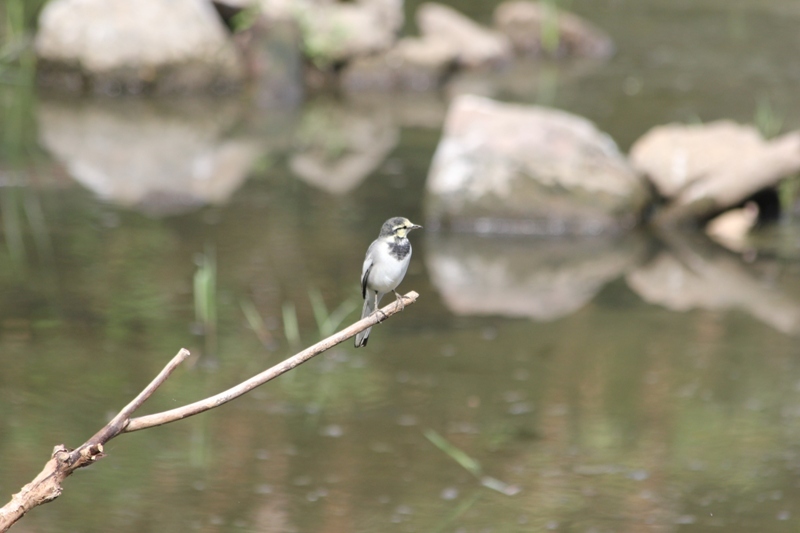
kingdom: Animalia
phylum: Chordata
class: Aves
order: Passeriformes
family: Motacillidae
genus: Motacilla
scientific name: Motacilla alba
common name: White wagtail
